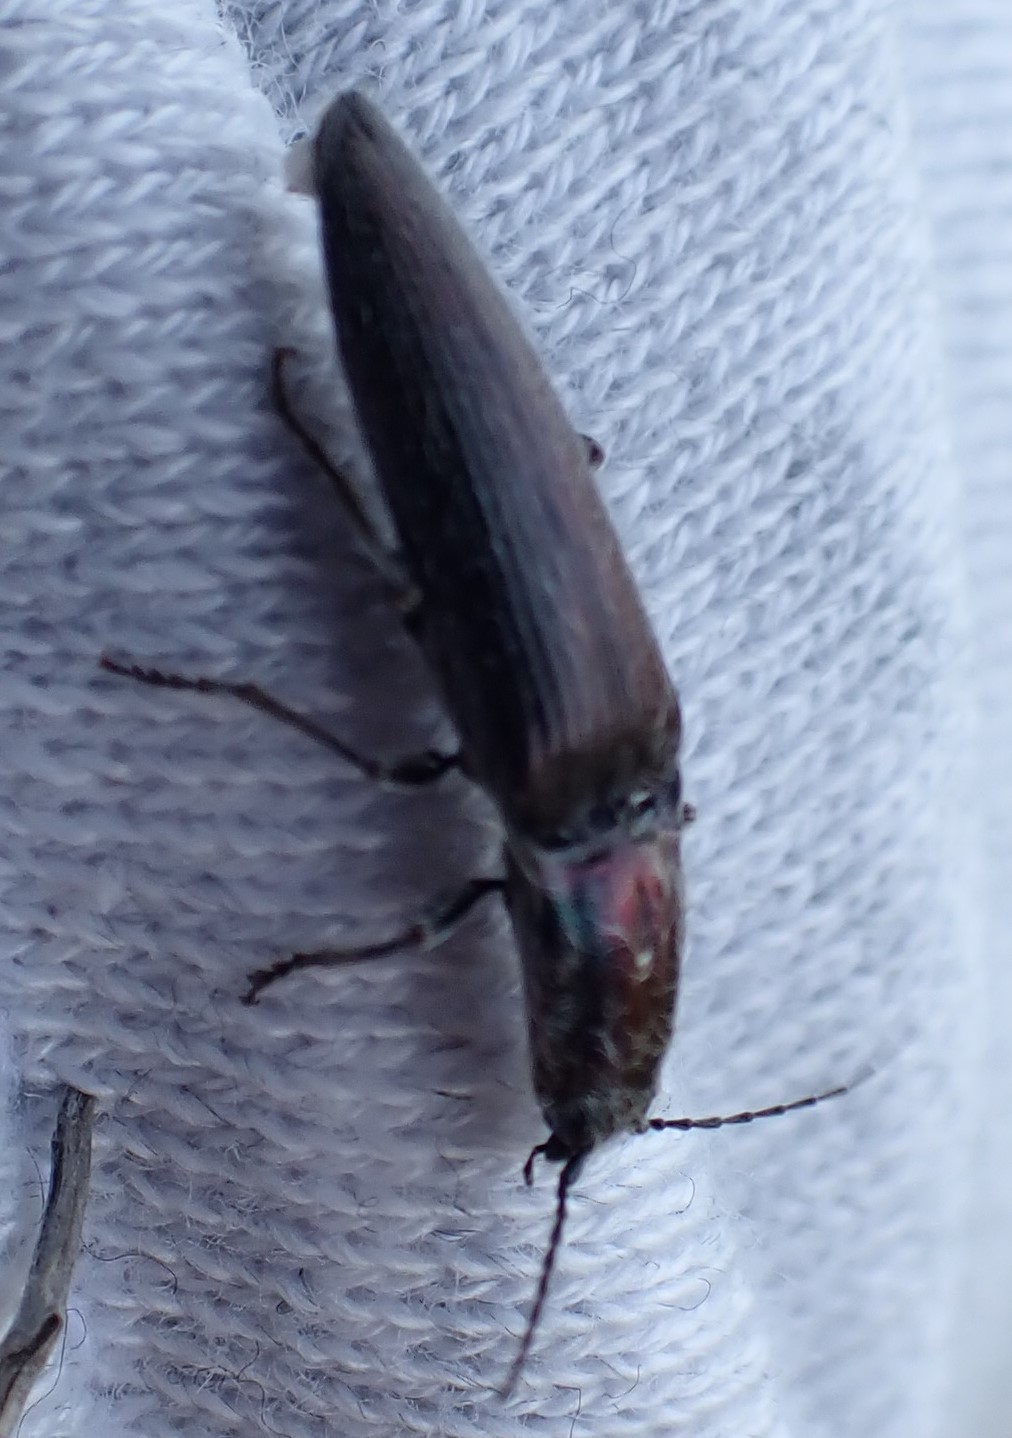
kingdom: Animalia
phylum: Arthropoda
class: Insecta
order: Coleoptera
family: Elateridae
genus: Crepidomenus
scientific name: Crepidomenus
